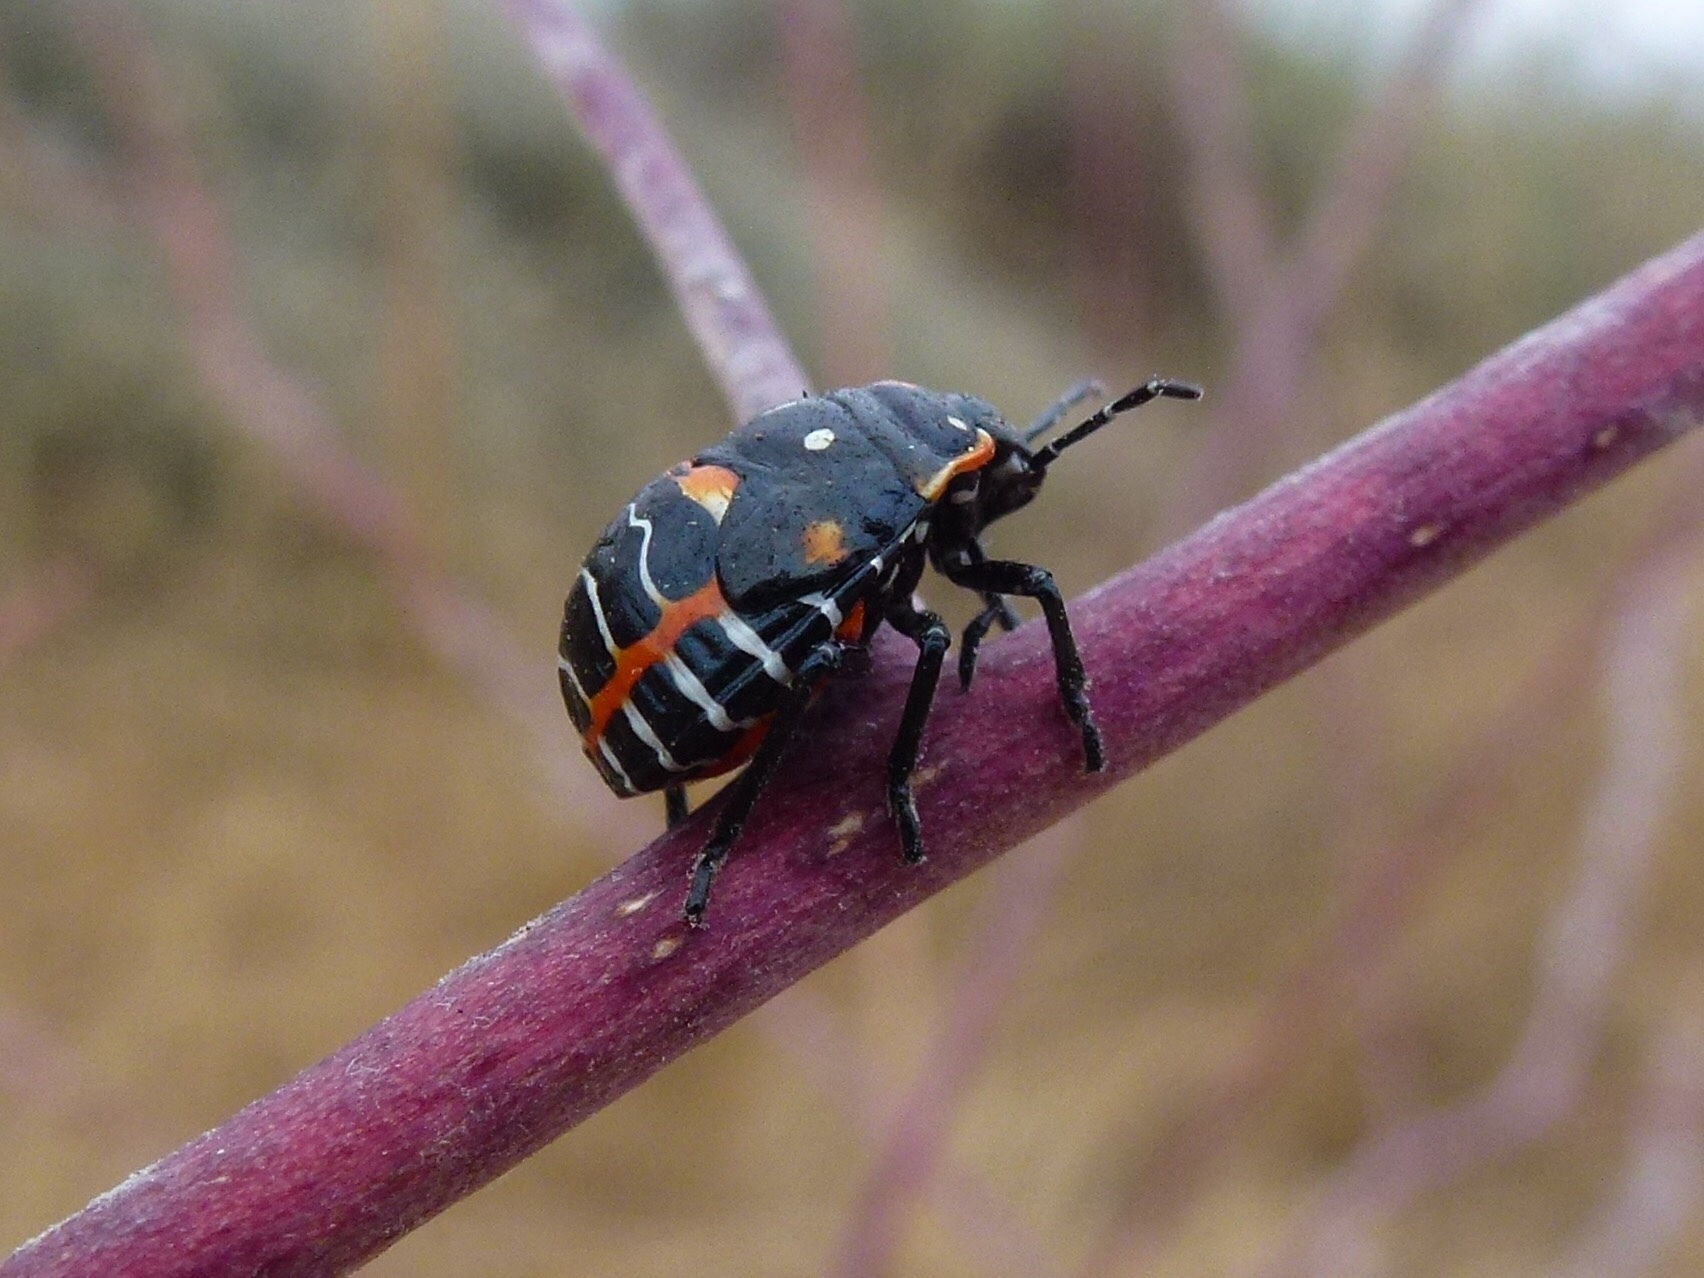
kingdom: Animalia
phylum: Arthropoda
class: Insecta
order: Hemiptera
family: Pentatomidae
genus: Murgantia
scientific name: Murgantia histrionica
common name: Harlequin bug
